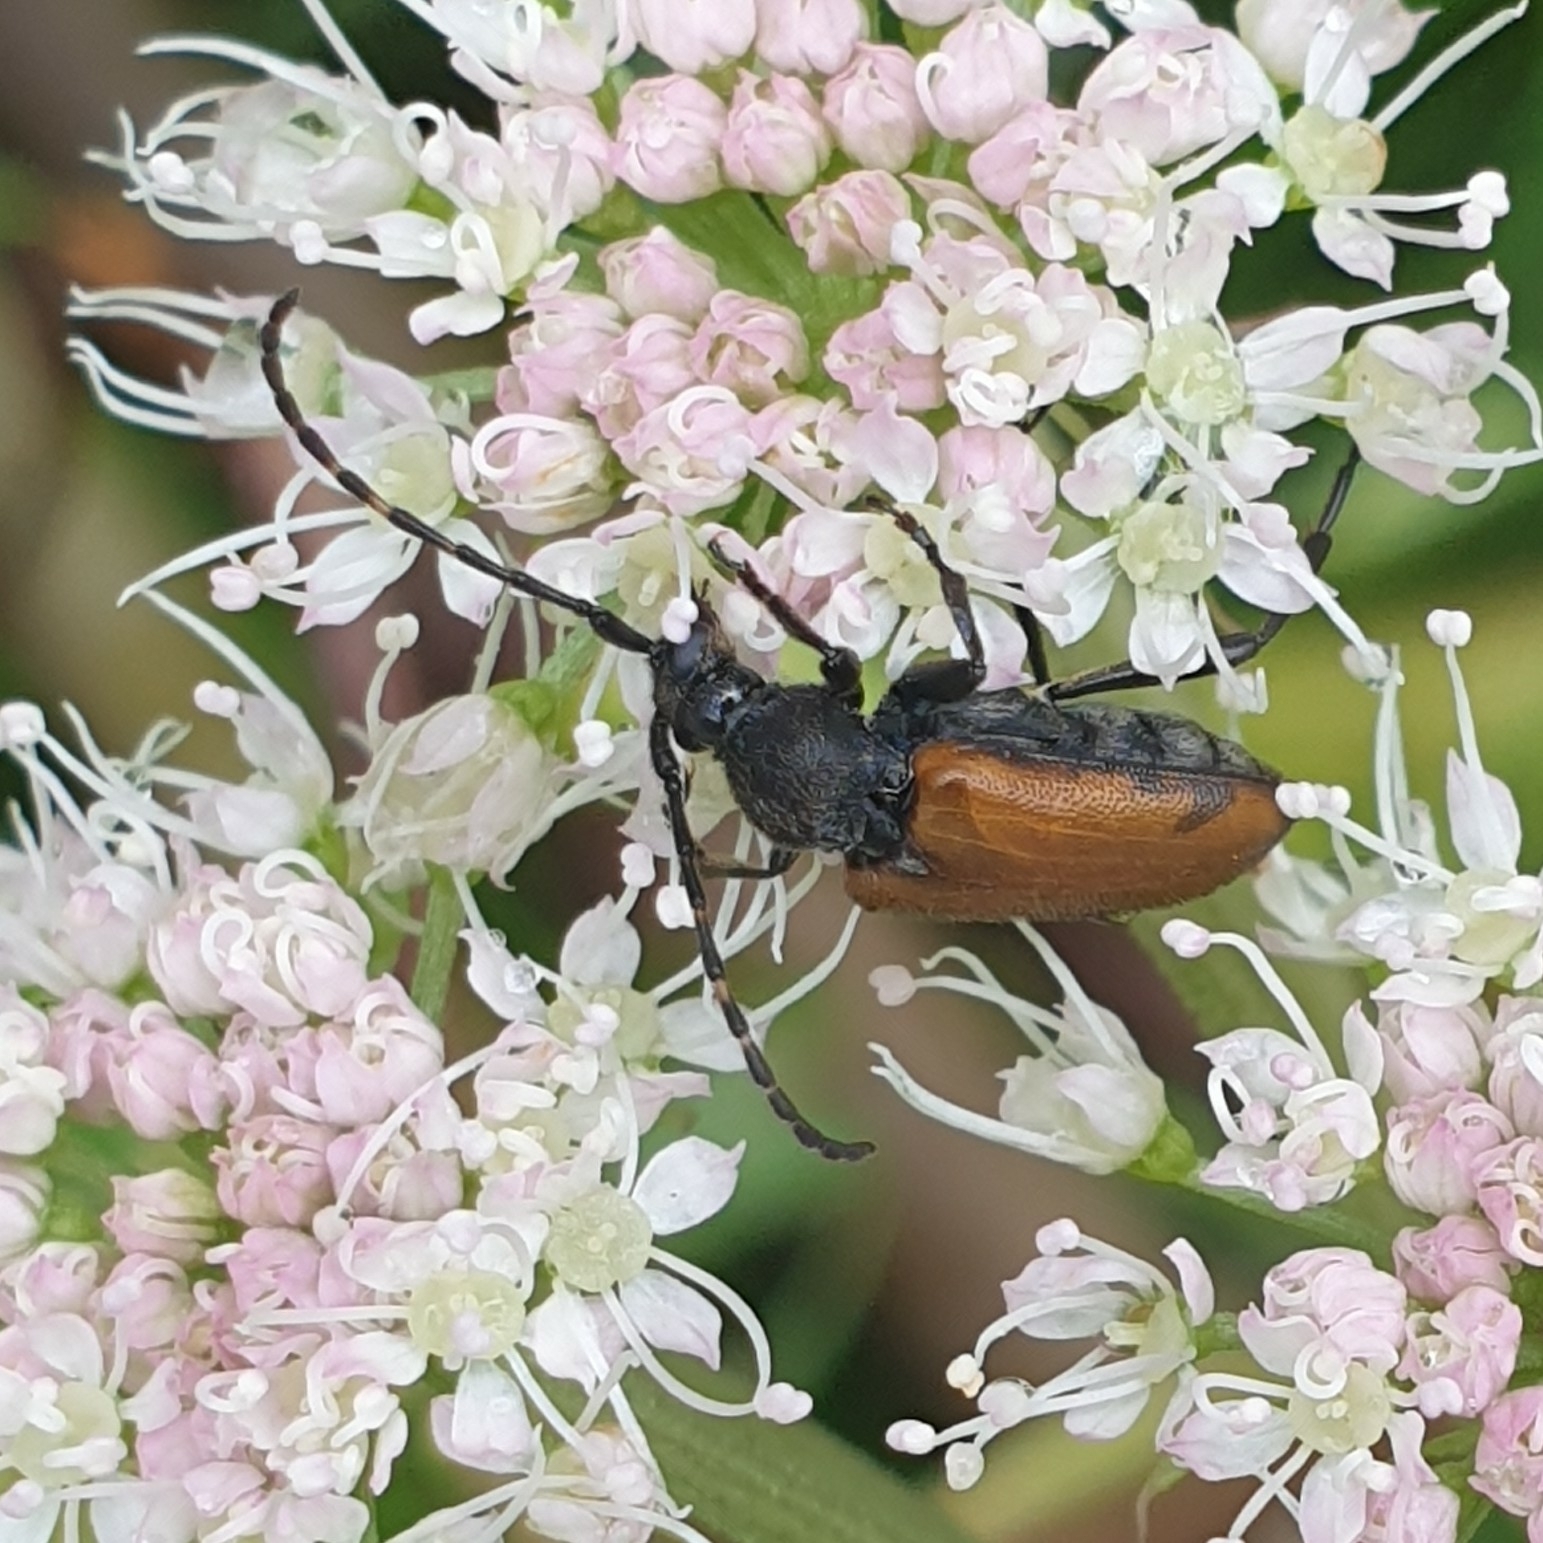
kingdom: Animalia
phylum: Arthropoda
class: Insecta
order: Coleoptera
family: Cerambycidae
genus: Paracorymbia
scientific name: Paracorymbia maculicornis
